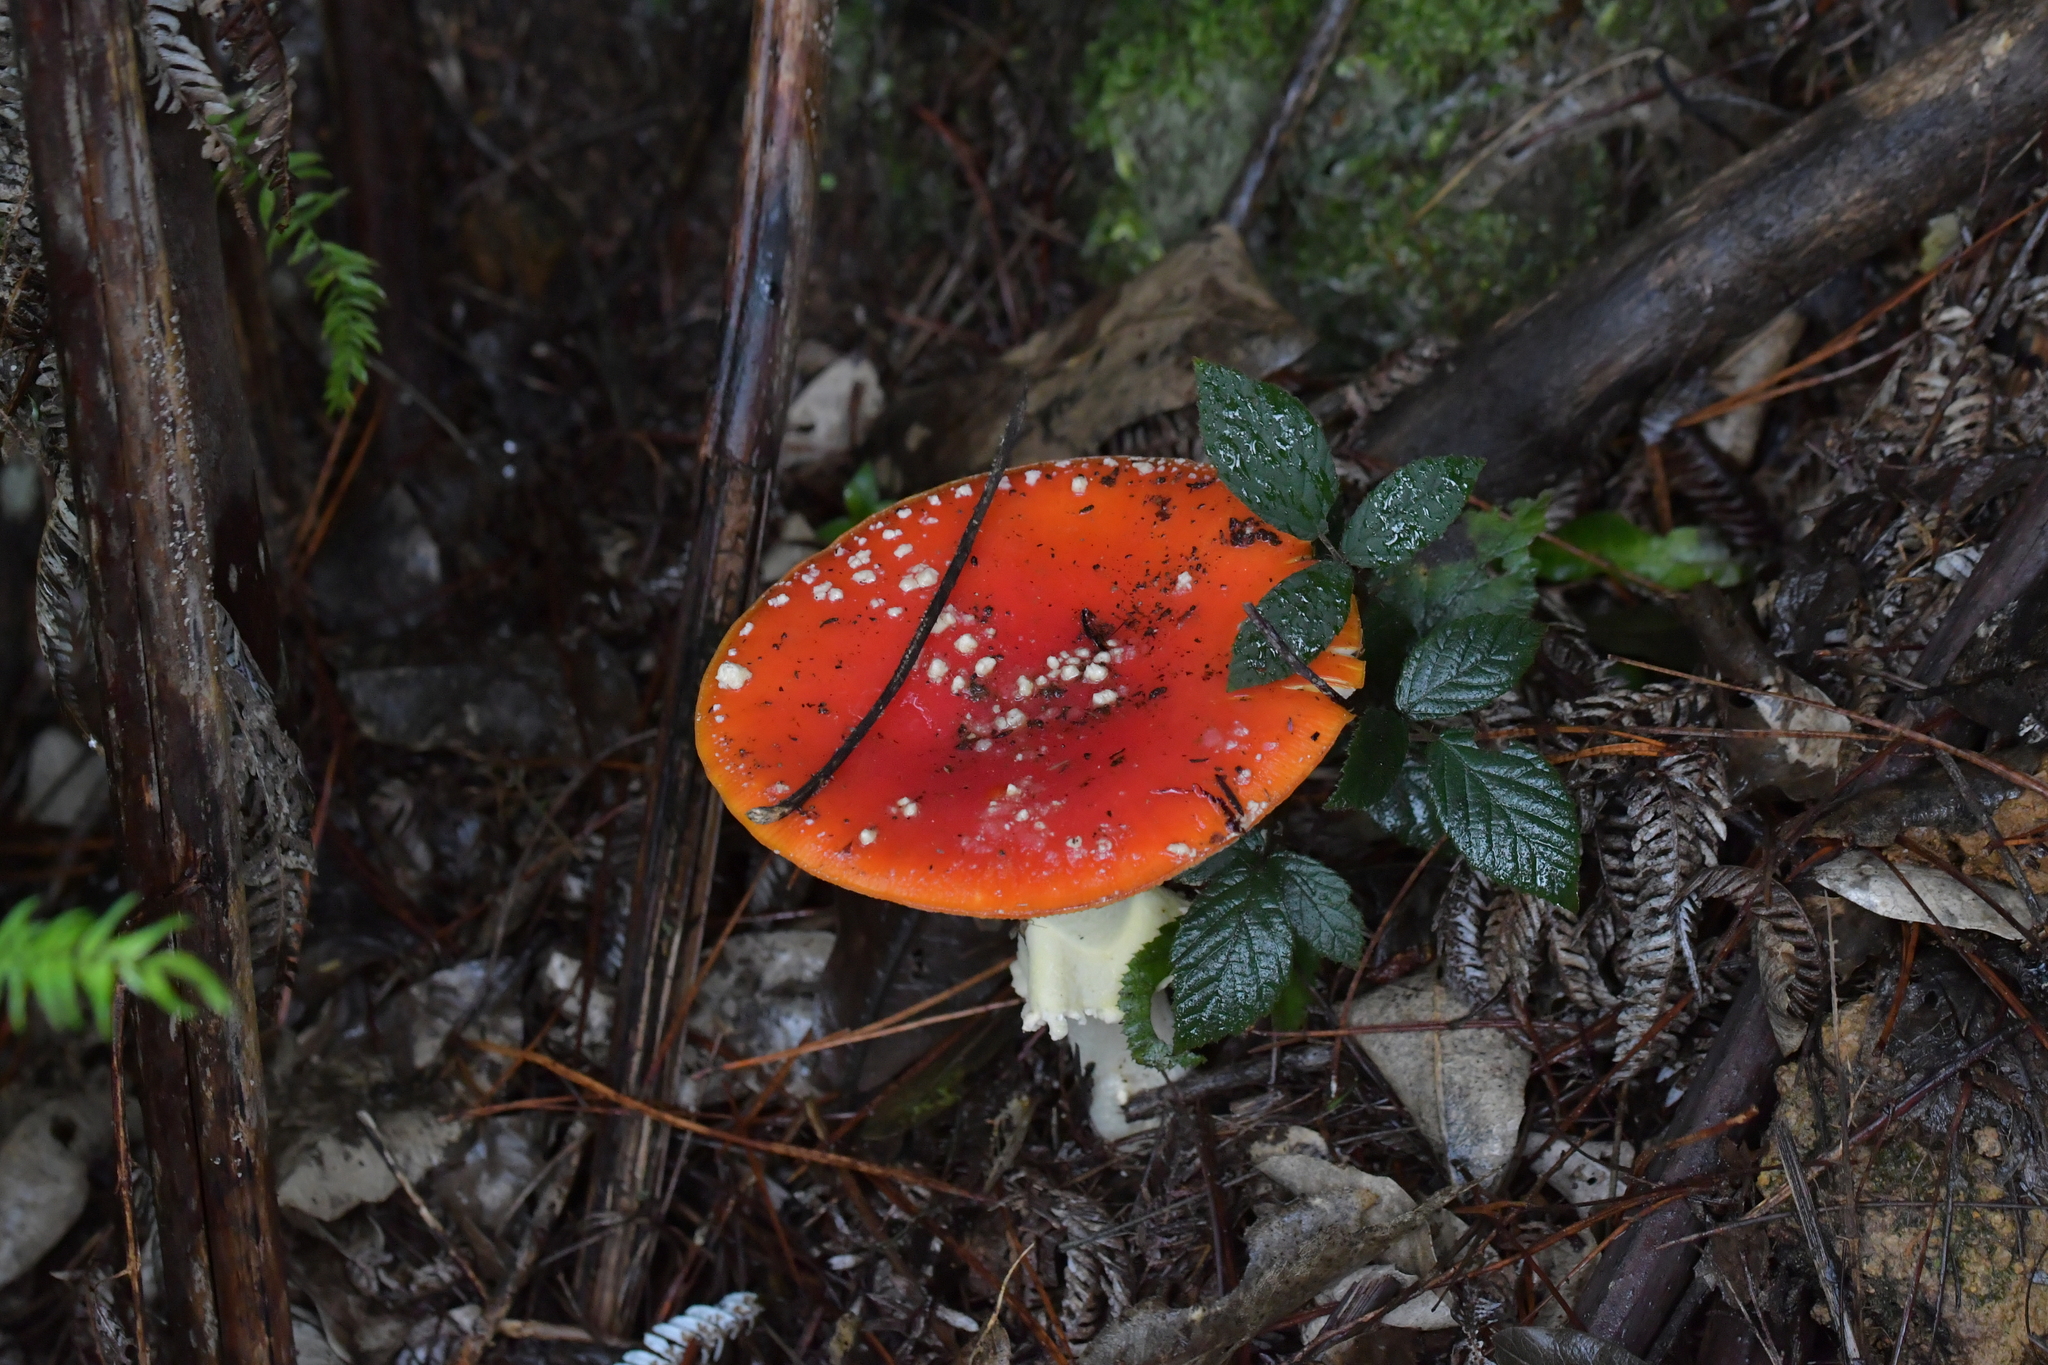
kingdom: Fungi
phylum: Basidiomycota
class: Agaricomycetes
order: Agaricales
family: Amanitaceae
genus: Amanita
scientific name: Amanita muscaria
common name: Fly agaric
